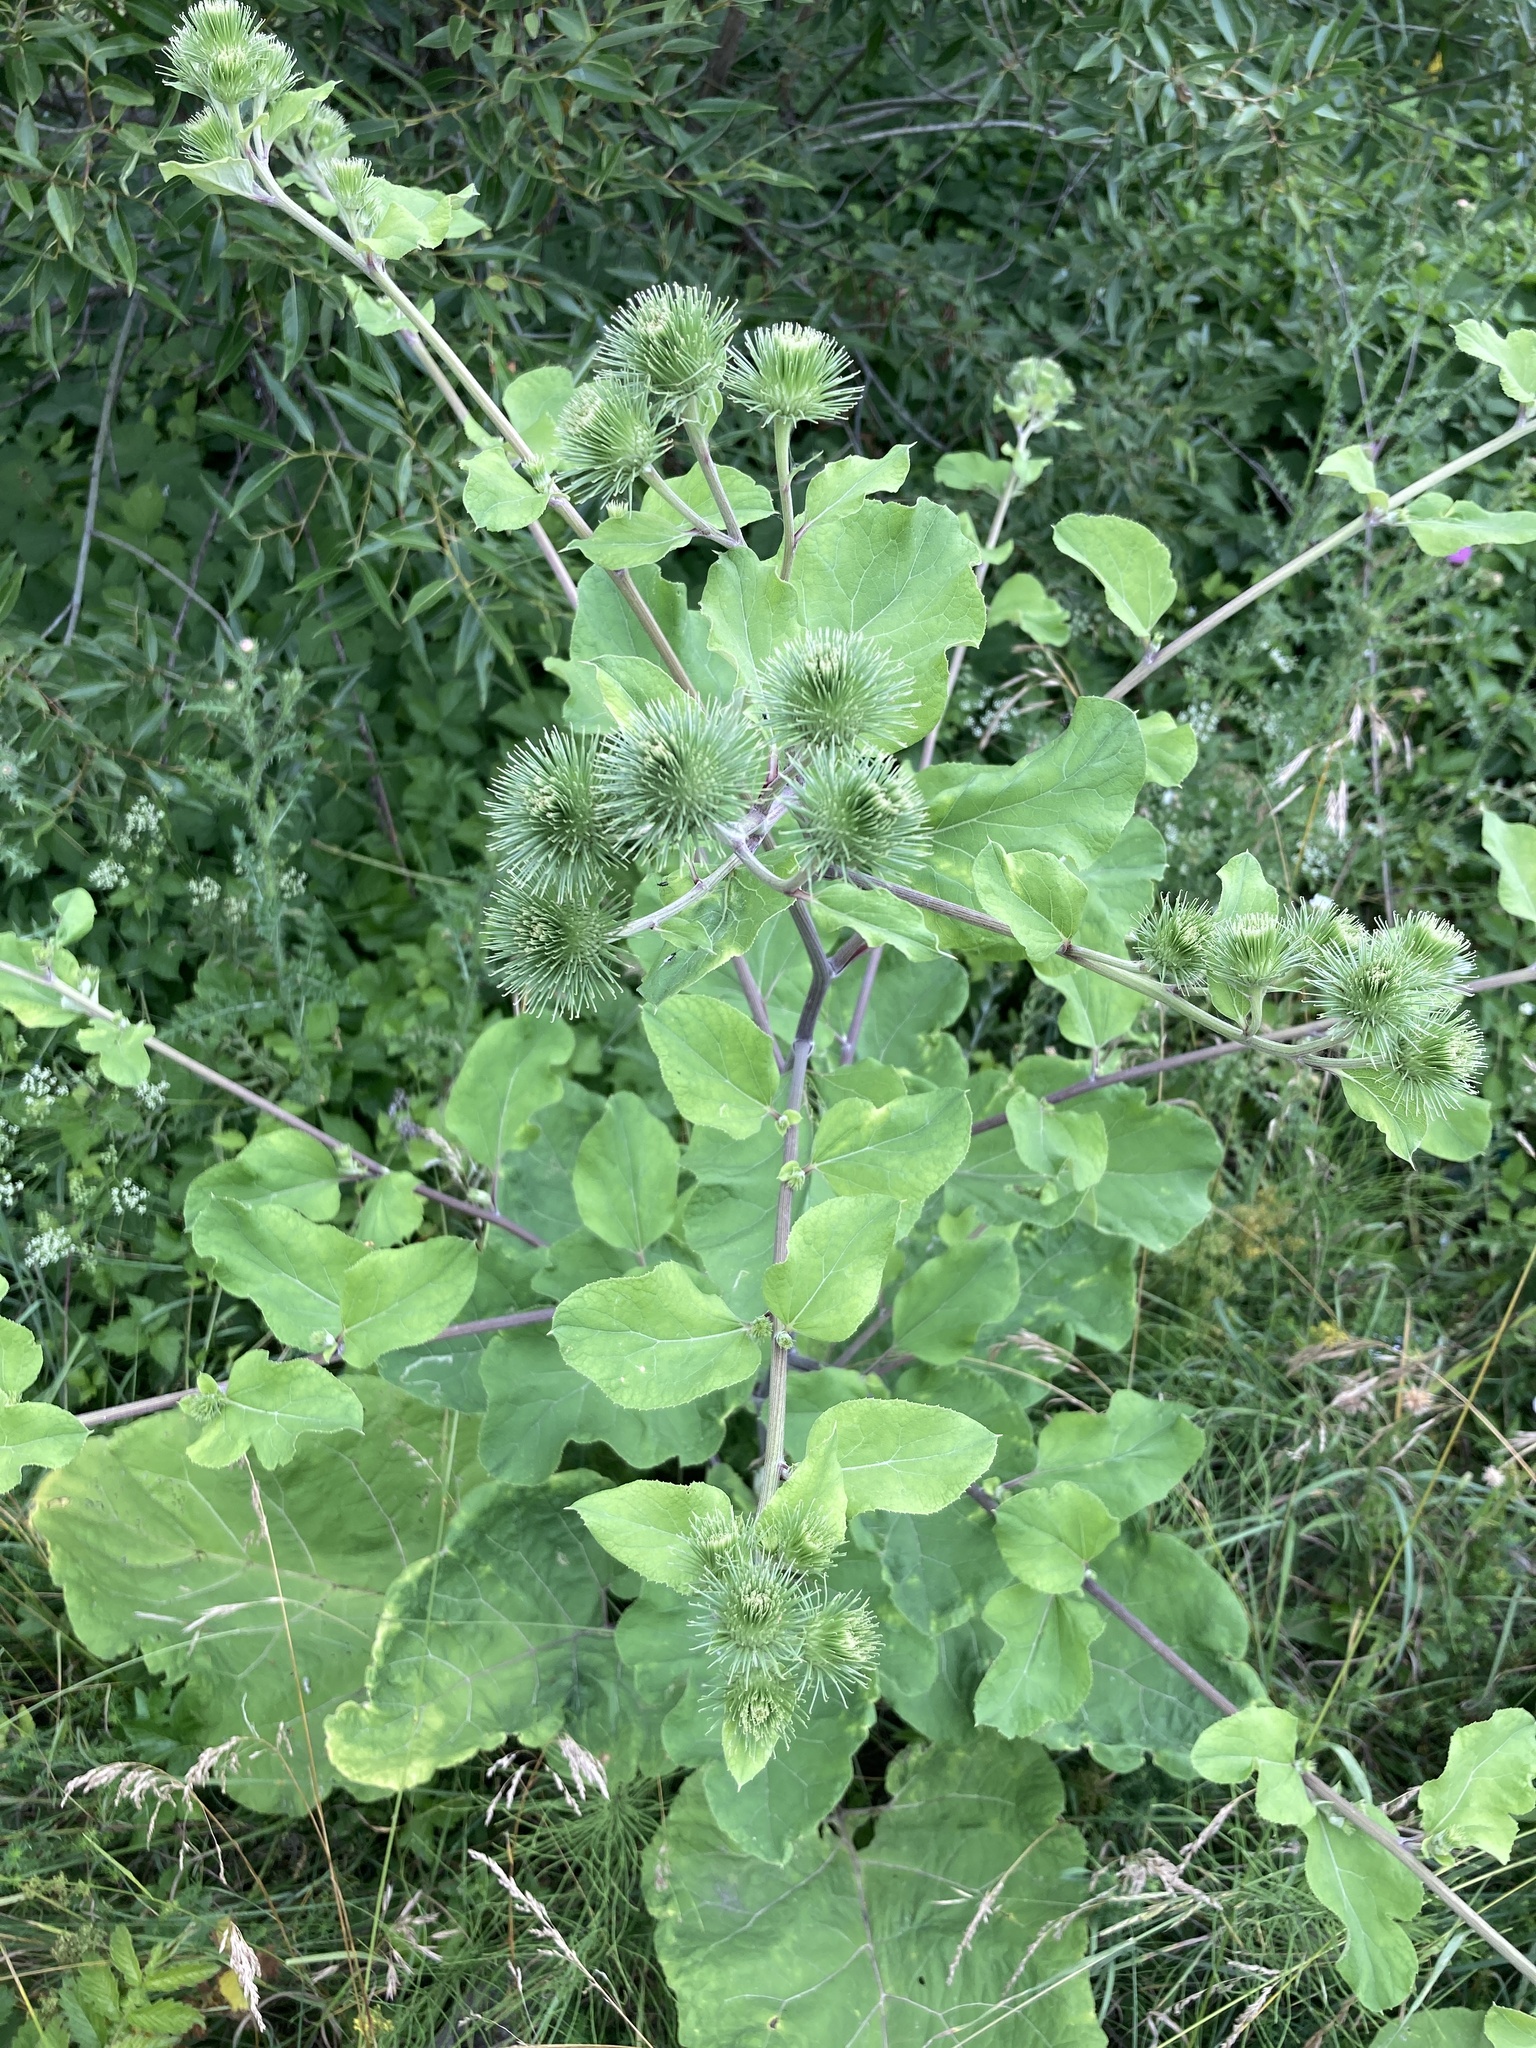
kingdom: Plantae
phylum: Tracheophyta
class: Magnoliopsida
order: Asterales
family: Asteraceae
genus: Arctium
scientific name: Arctium lappa
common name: Greater burdock
